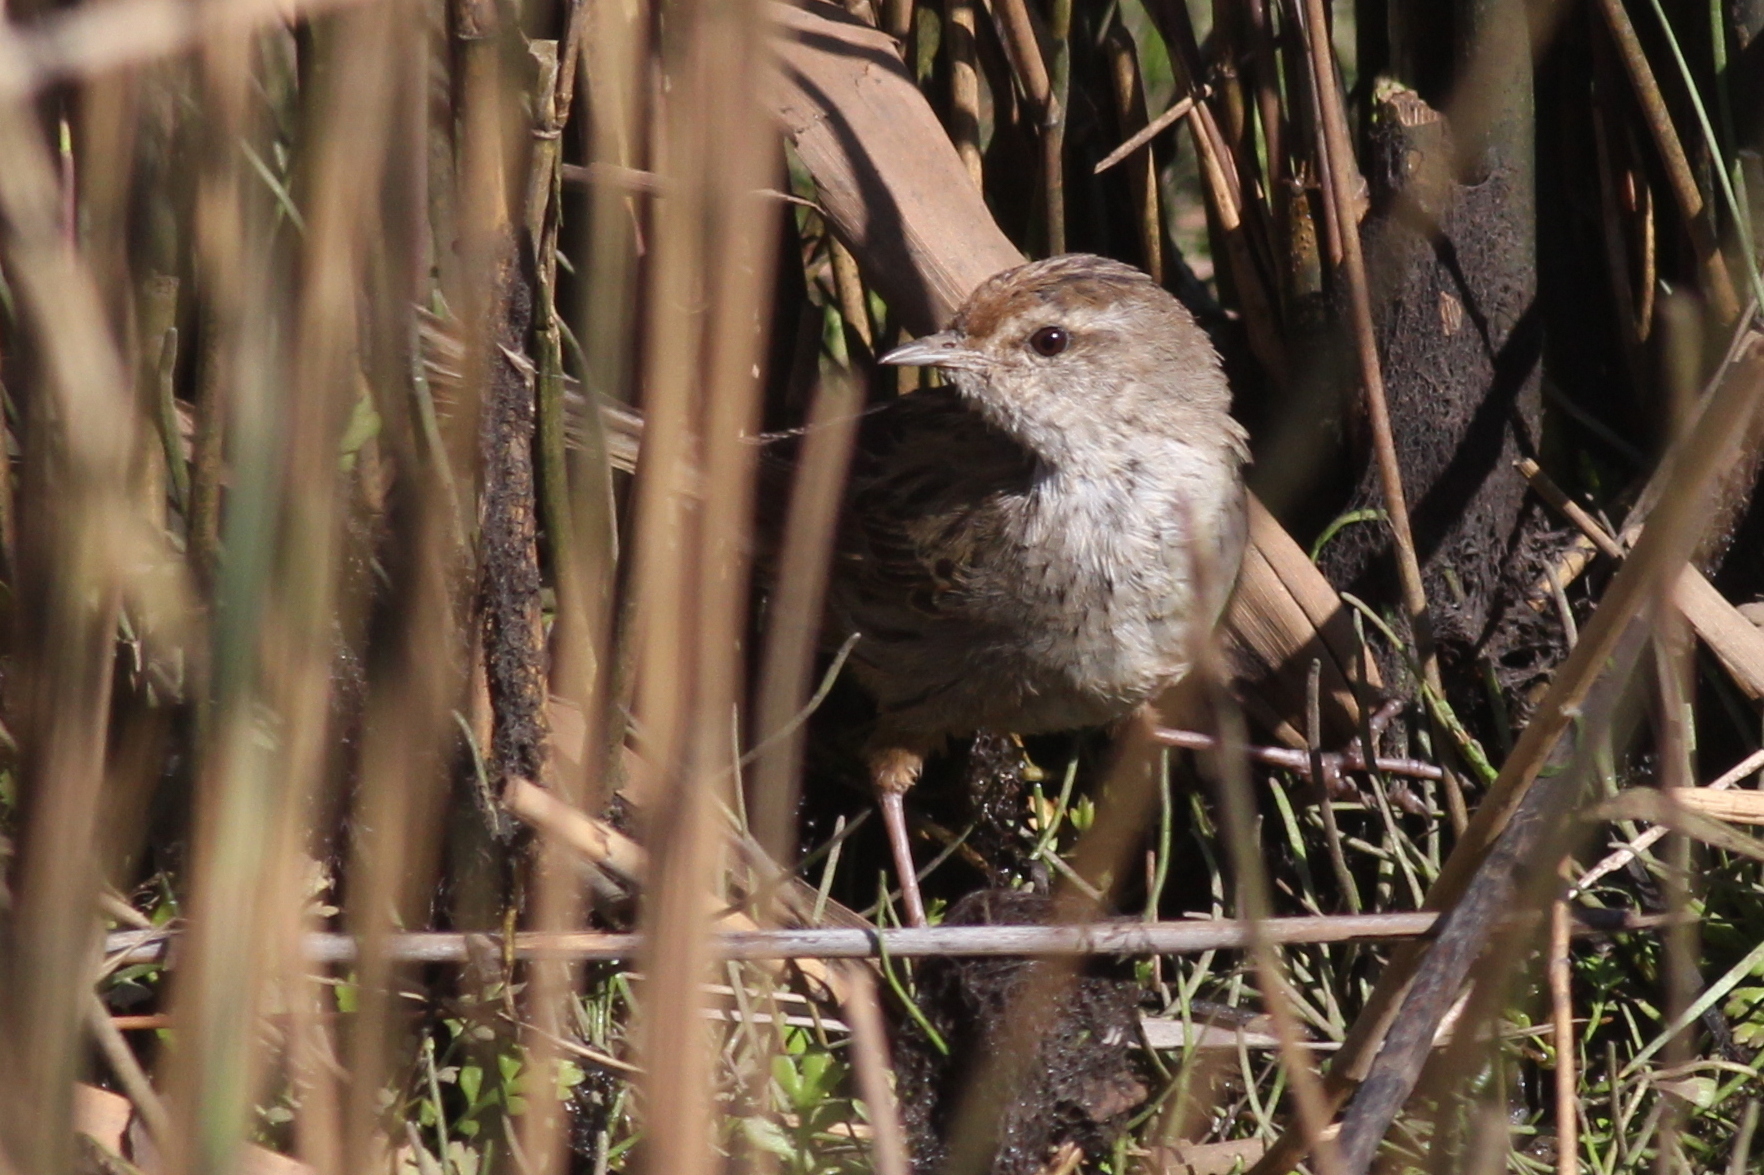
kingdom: Animalia
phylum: Chordata
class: Aves
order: Passeriformes
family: Locustellidae
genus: Megalurus
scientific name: Megalurus gramineus
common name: Little grassbird
